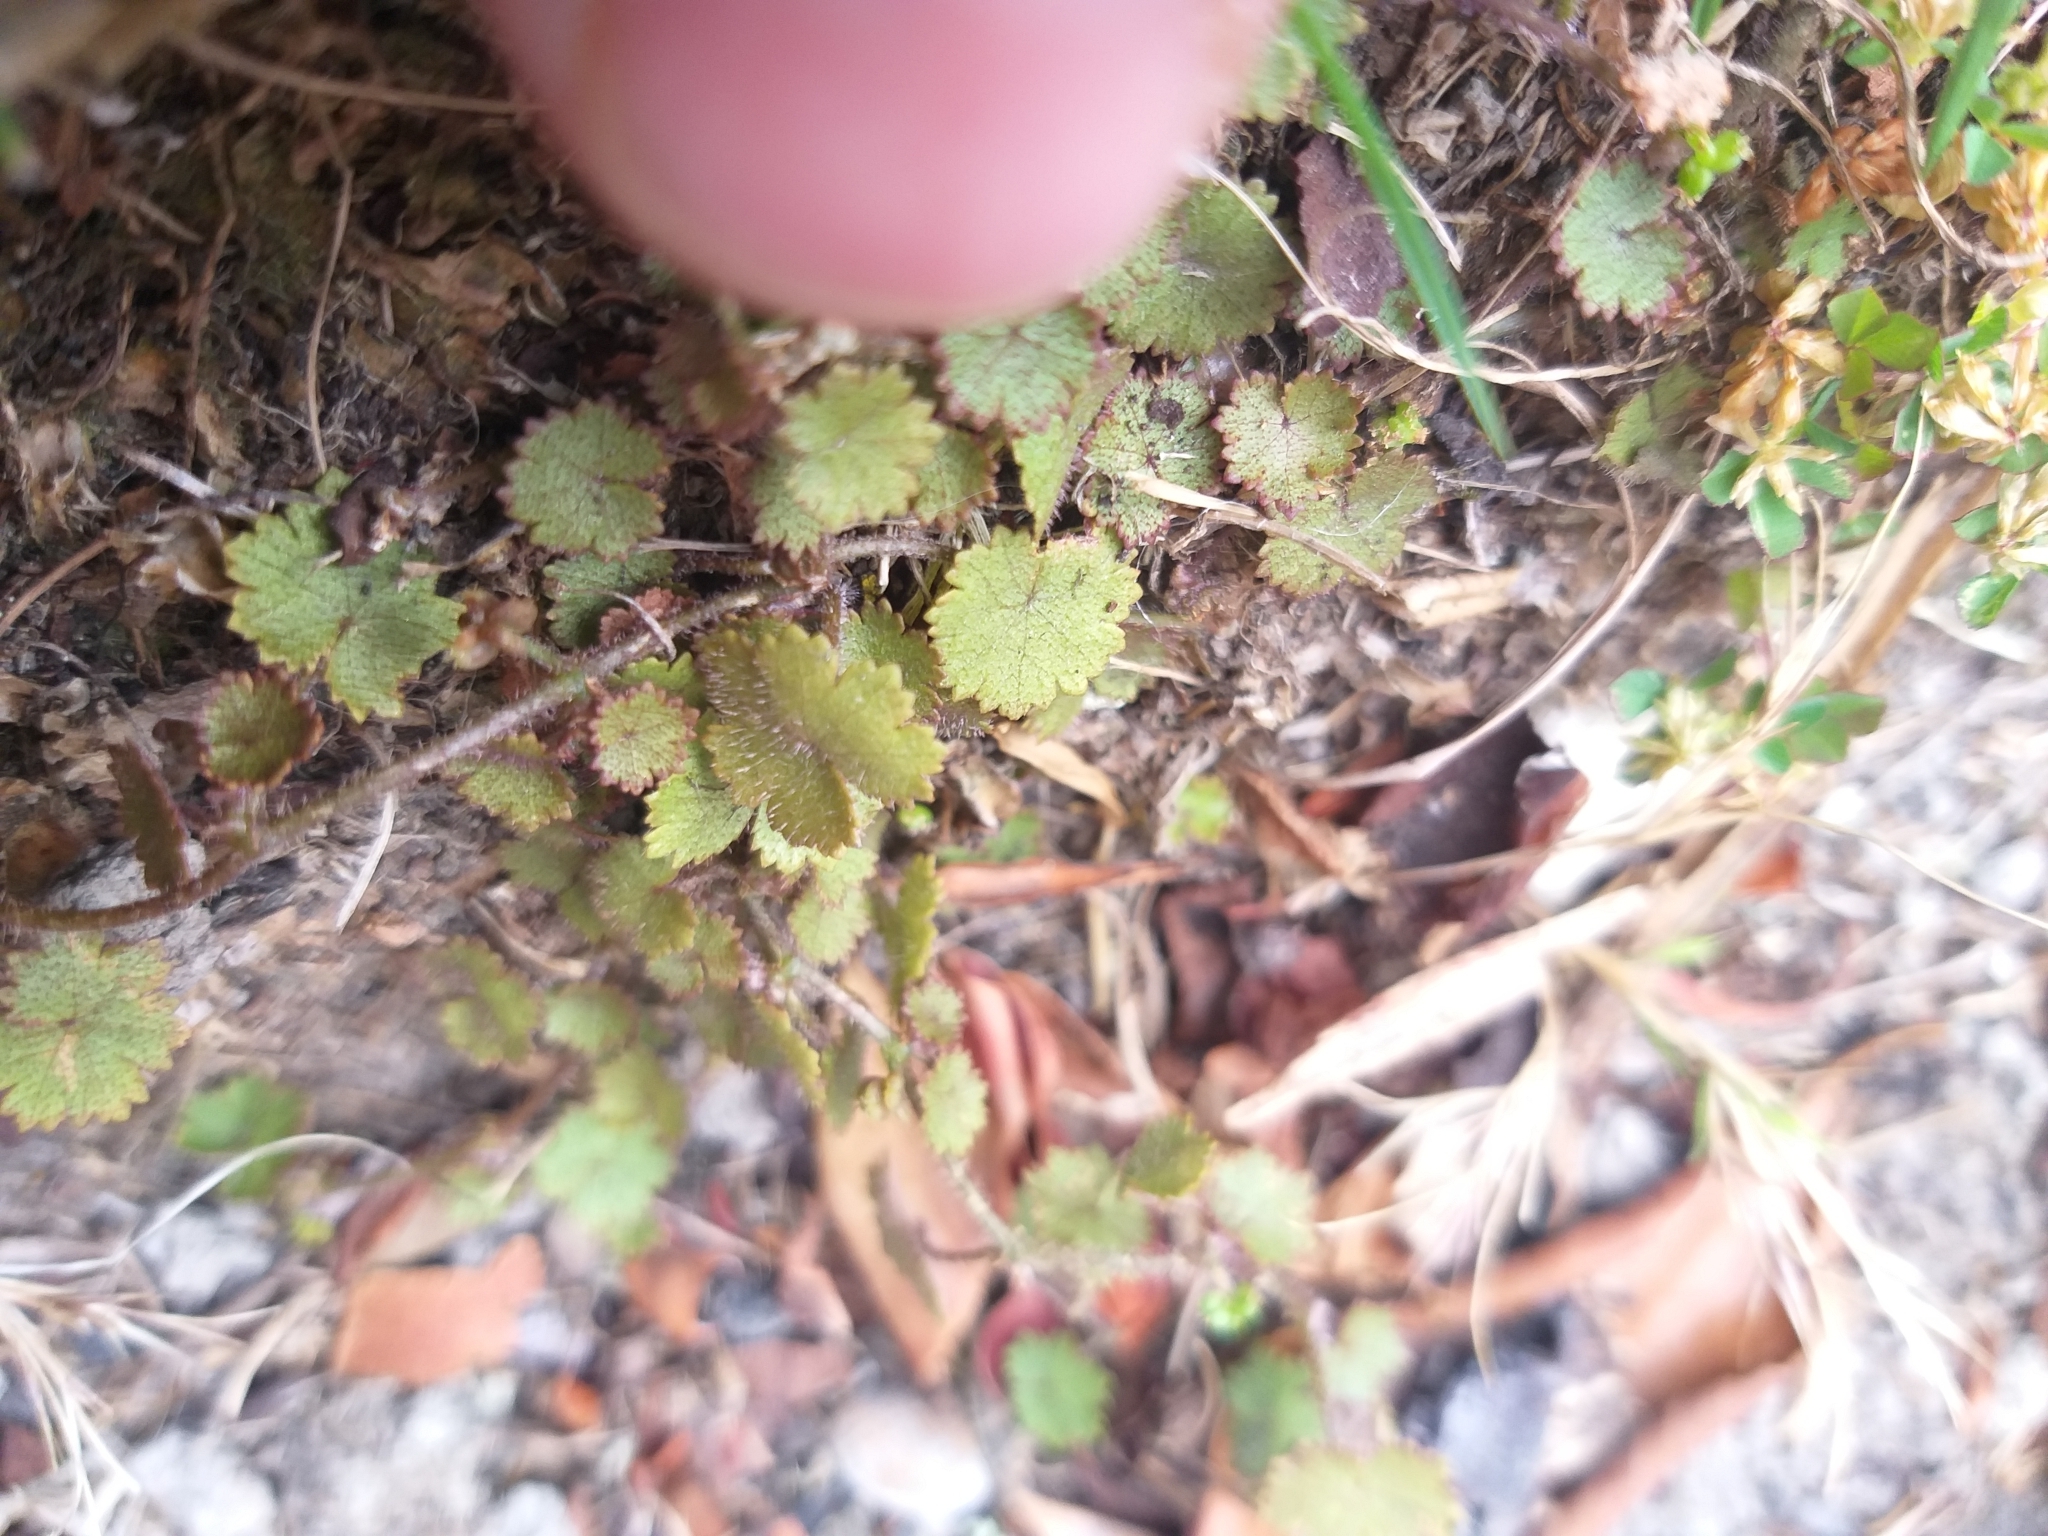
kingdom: Plantae
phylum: Tracheophyta
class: Magnoliopsida
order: Apiales
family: Araliaceae
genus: Hydrocotyle
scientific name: Hydrocotyle moschata
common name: Hairy pennywort
